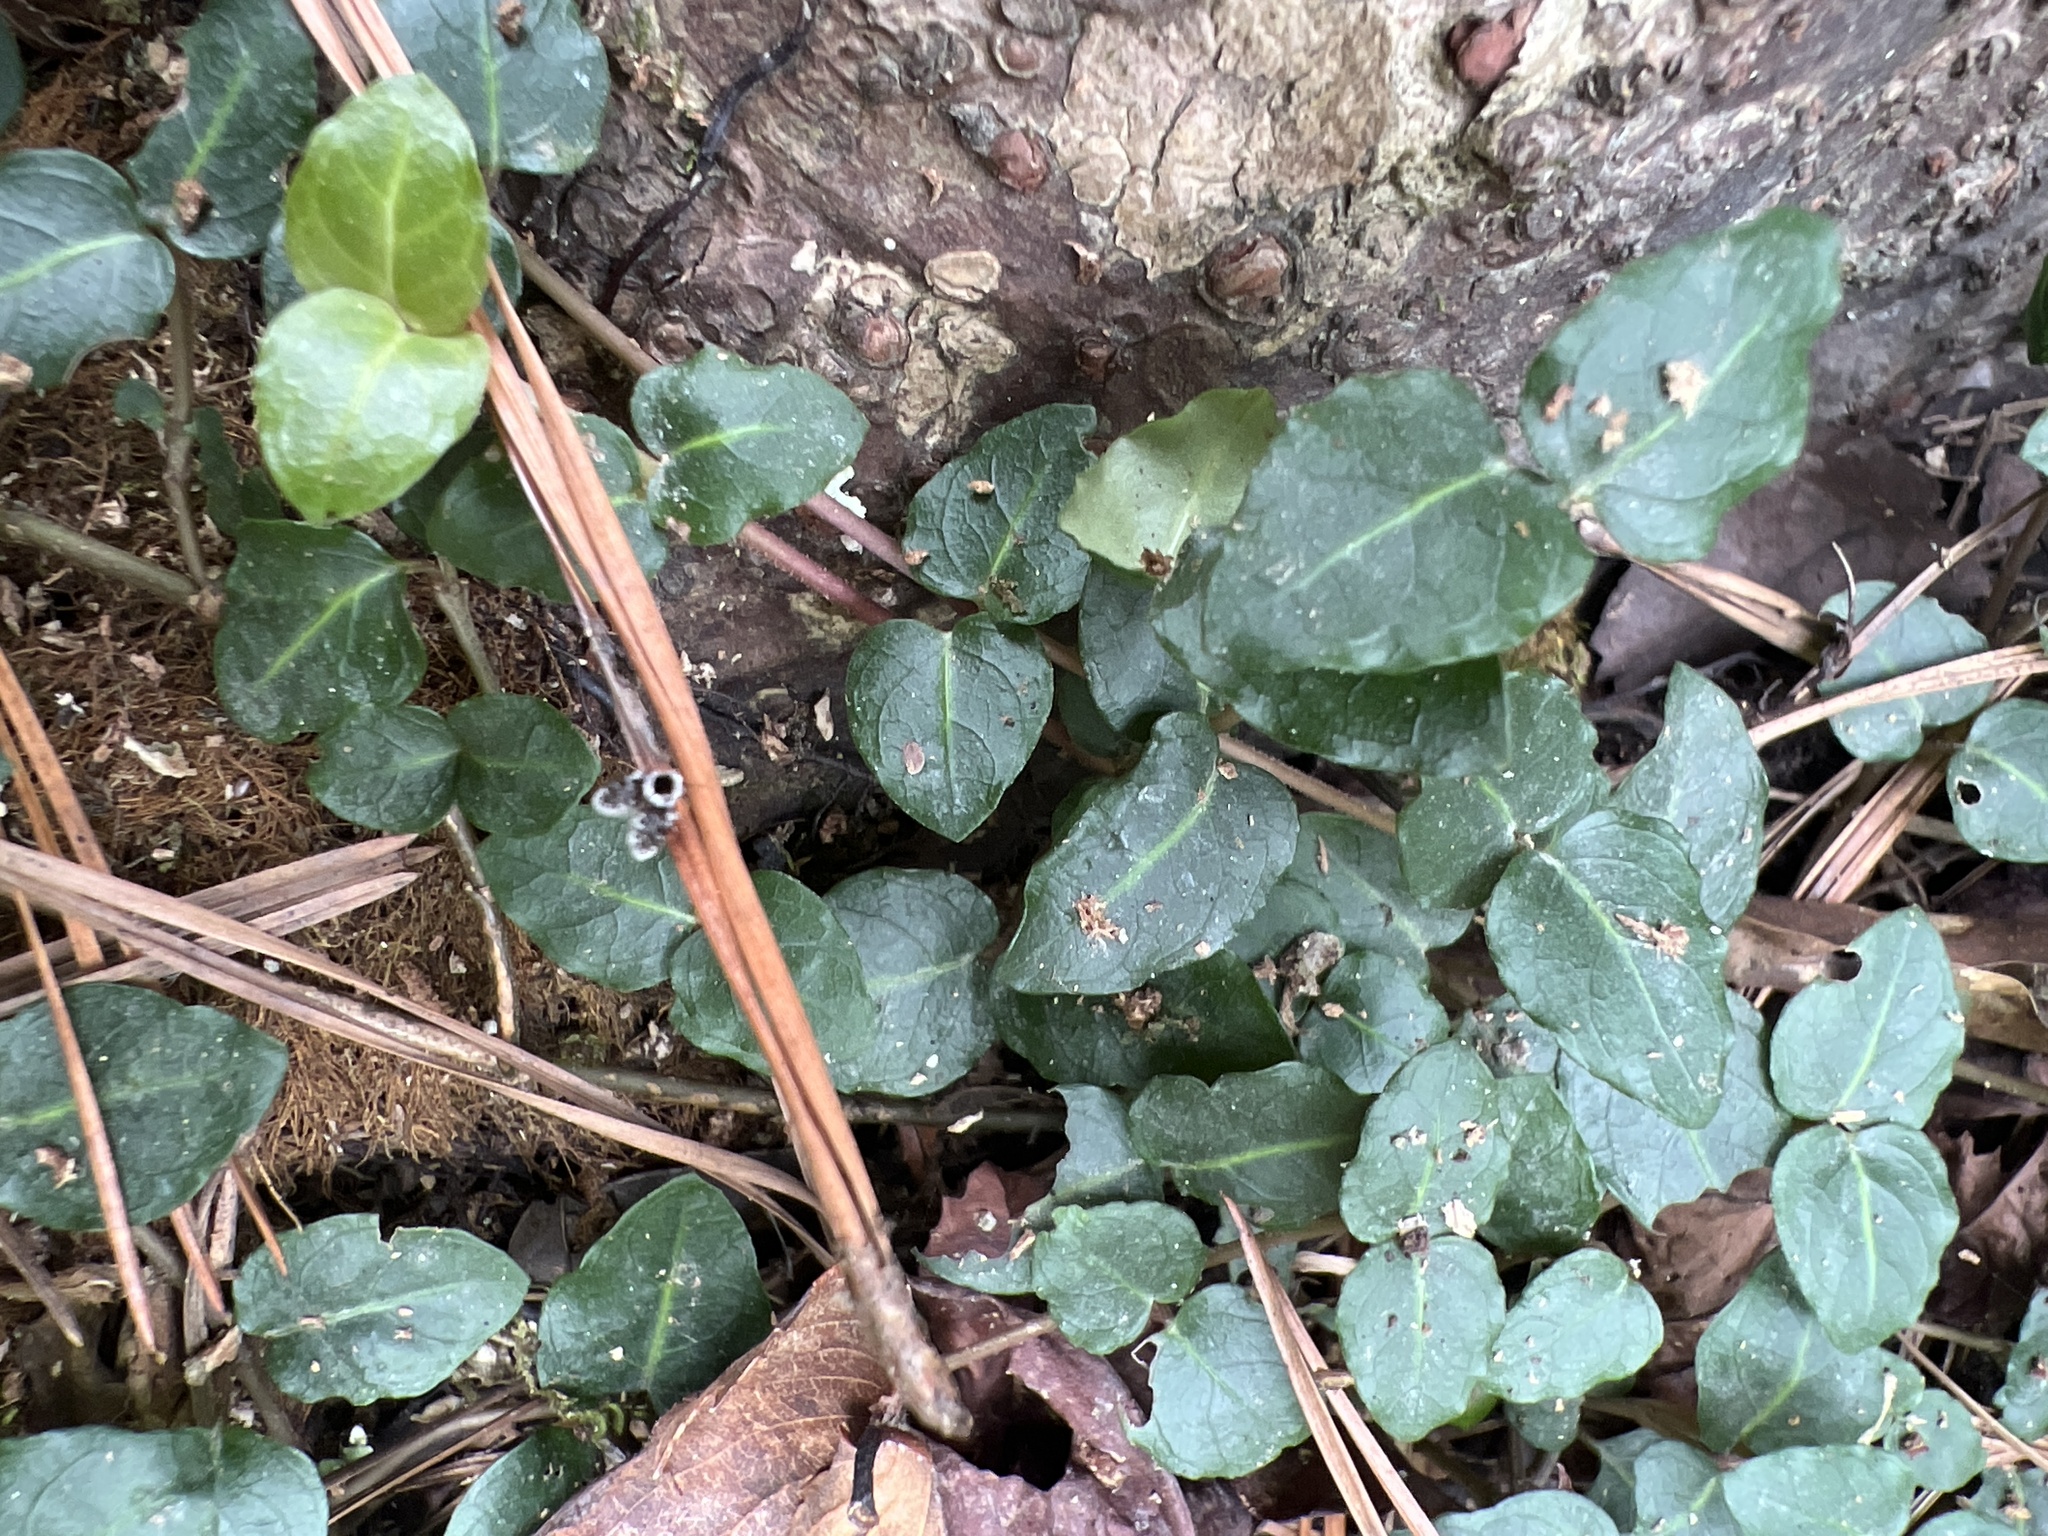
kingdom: Plantae
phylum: Tracheophyta
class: Magnoliopsida
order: Gentianales
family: Rubiaceae
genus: Mitchella
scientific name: Mitchella repens
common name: Partridge-berry
